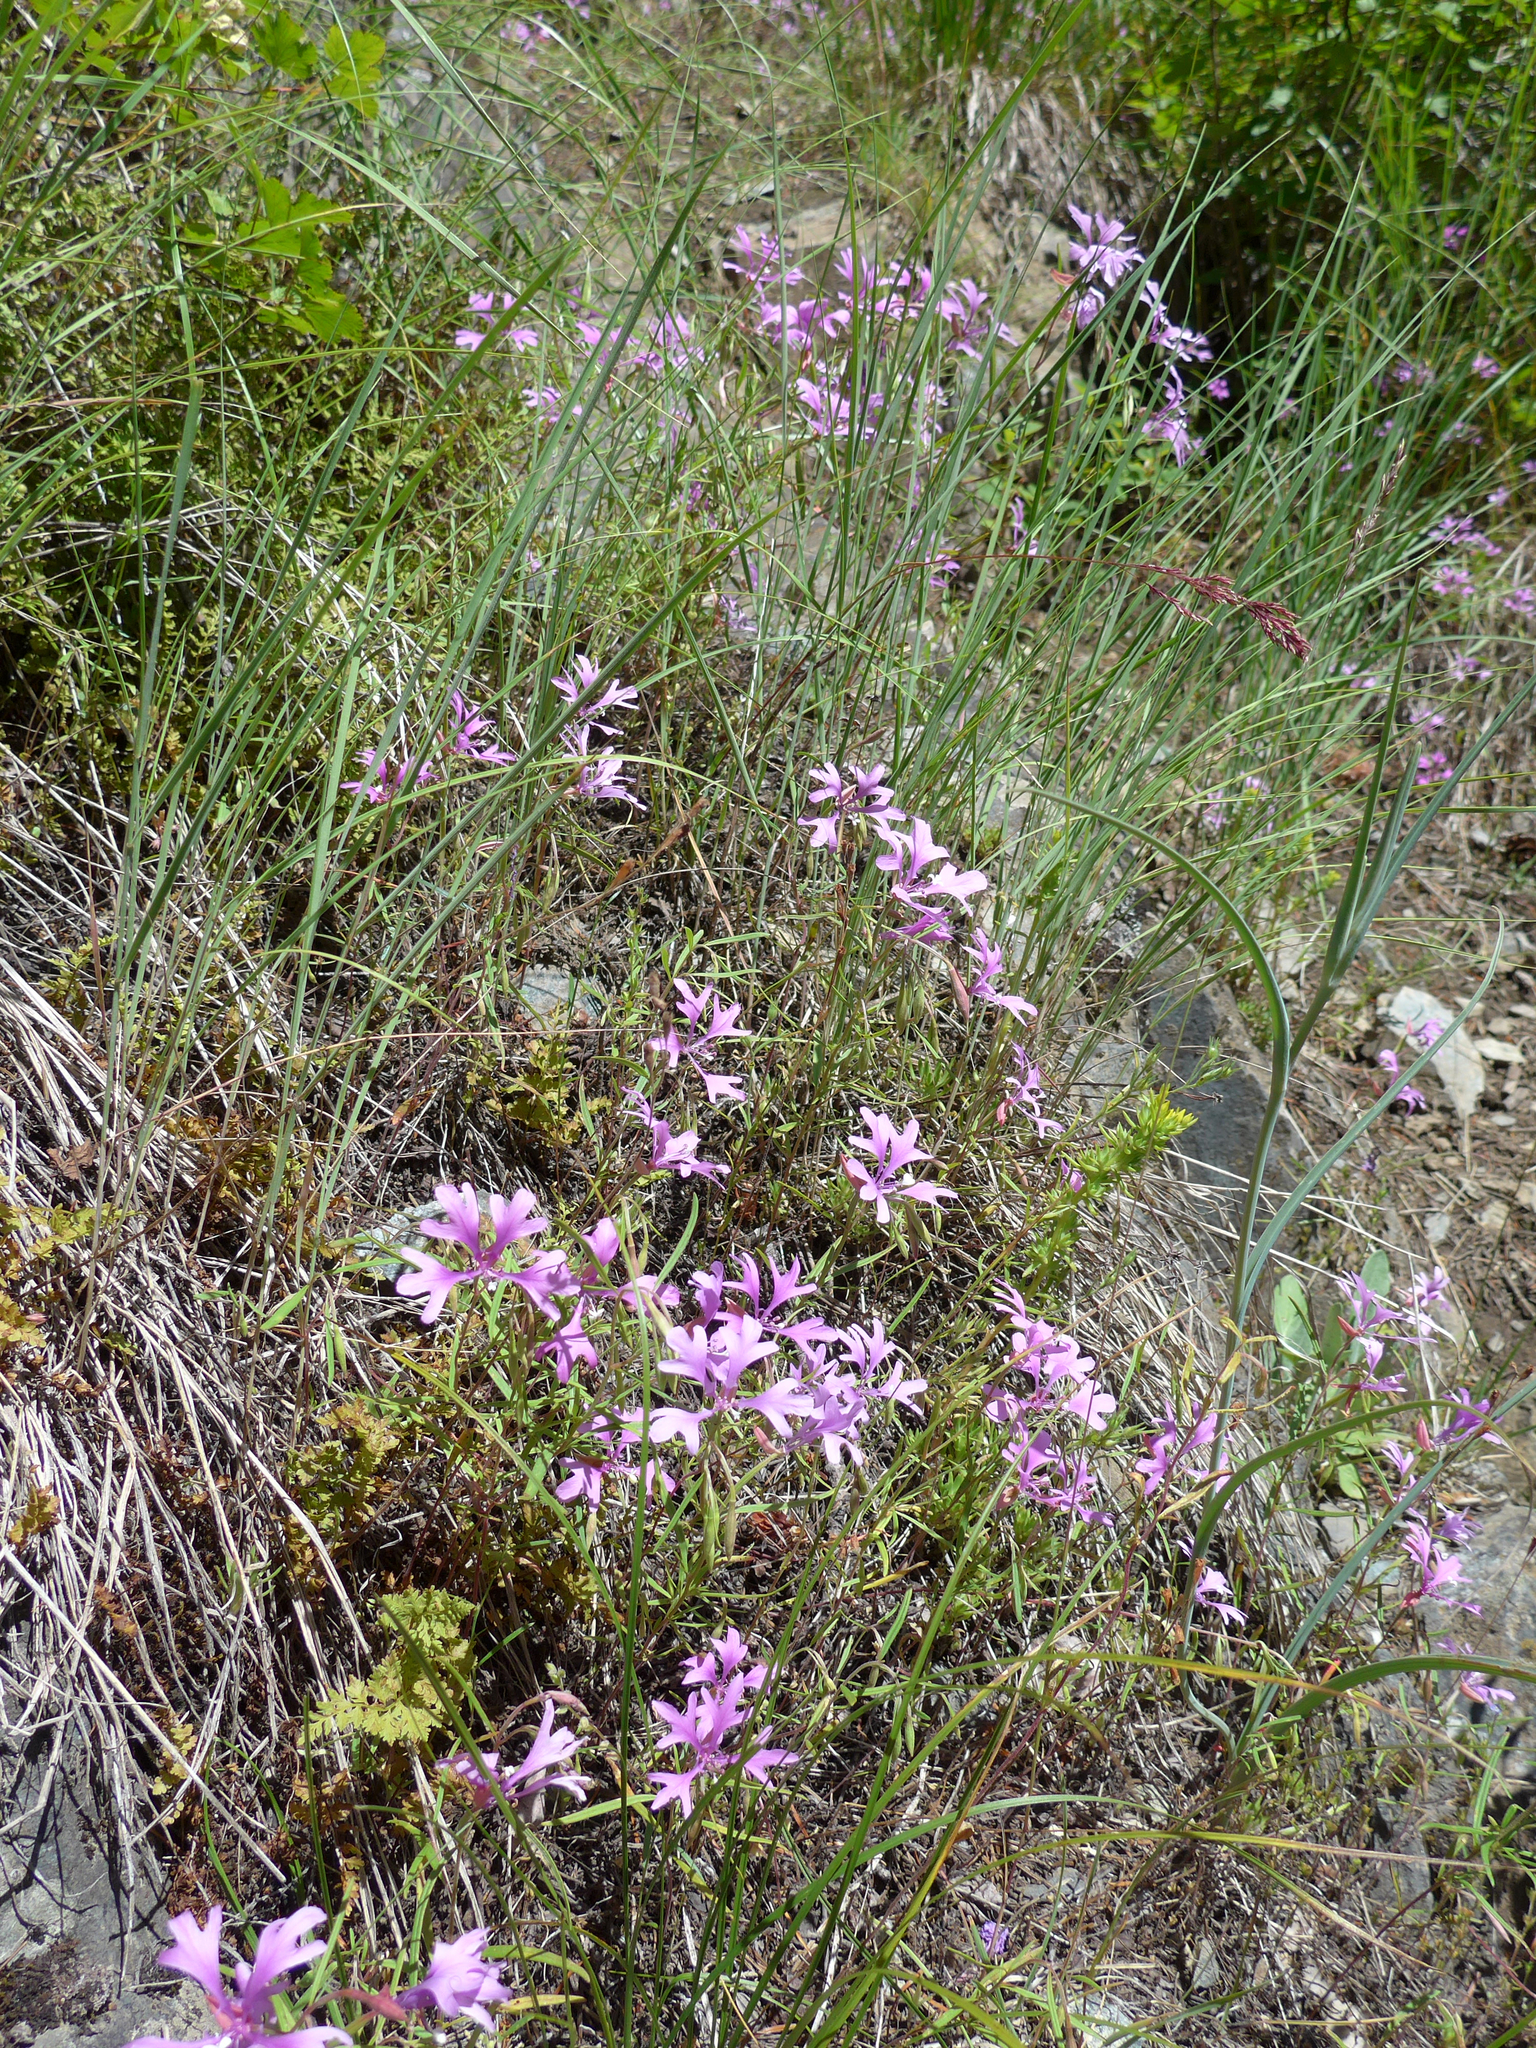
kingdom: Plantae
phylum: Tracheophyta
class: Magnoliopsida
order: Myrtales
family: Onagraceae
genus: Clarkia
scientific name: Clarkia pulchella
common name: Deer horn
